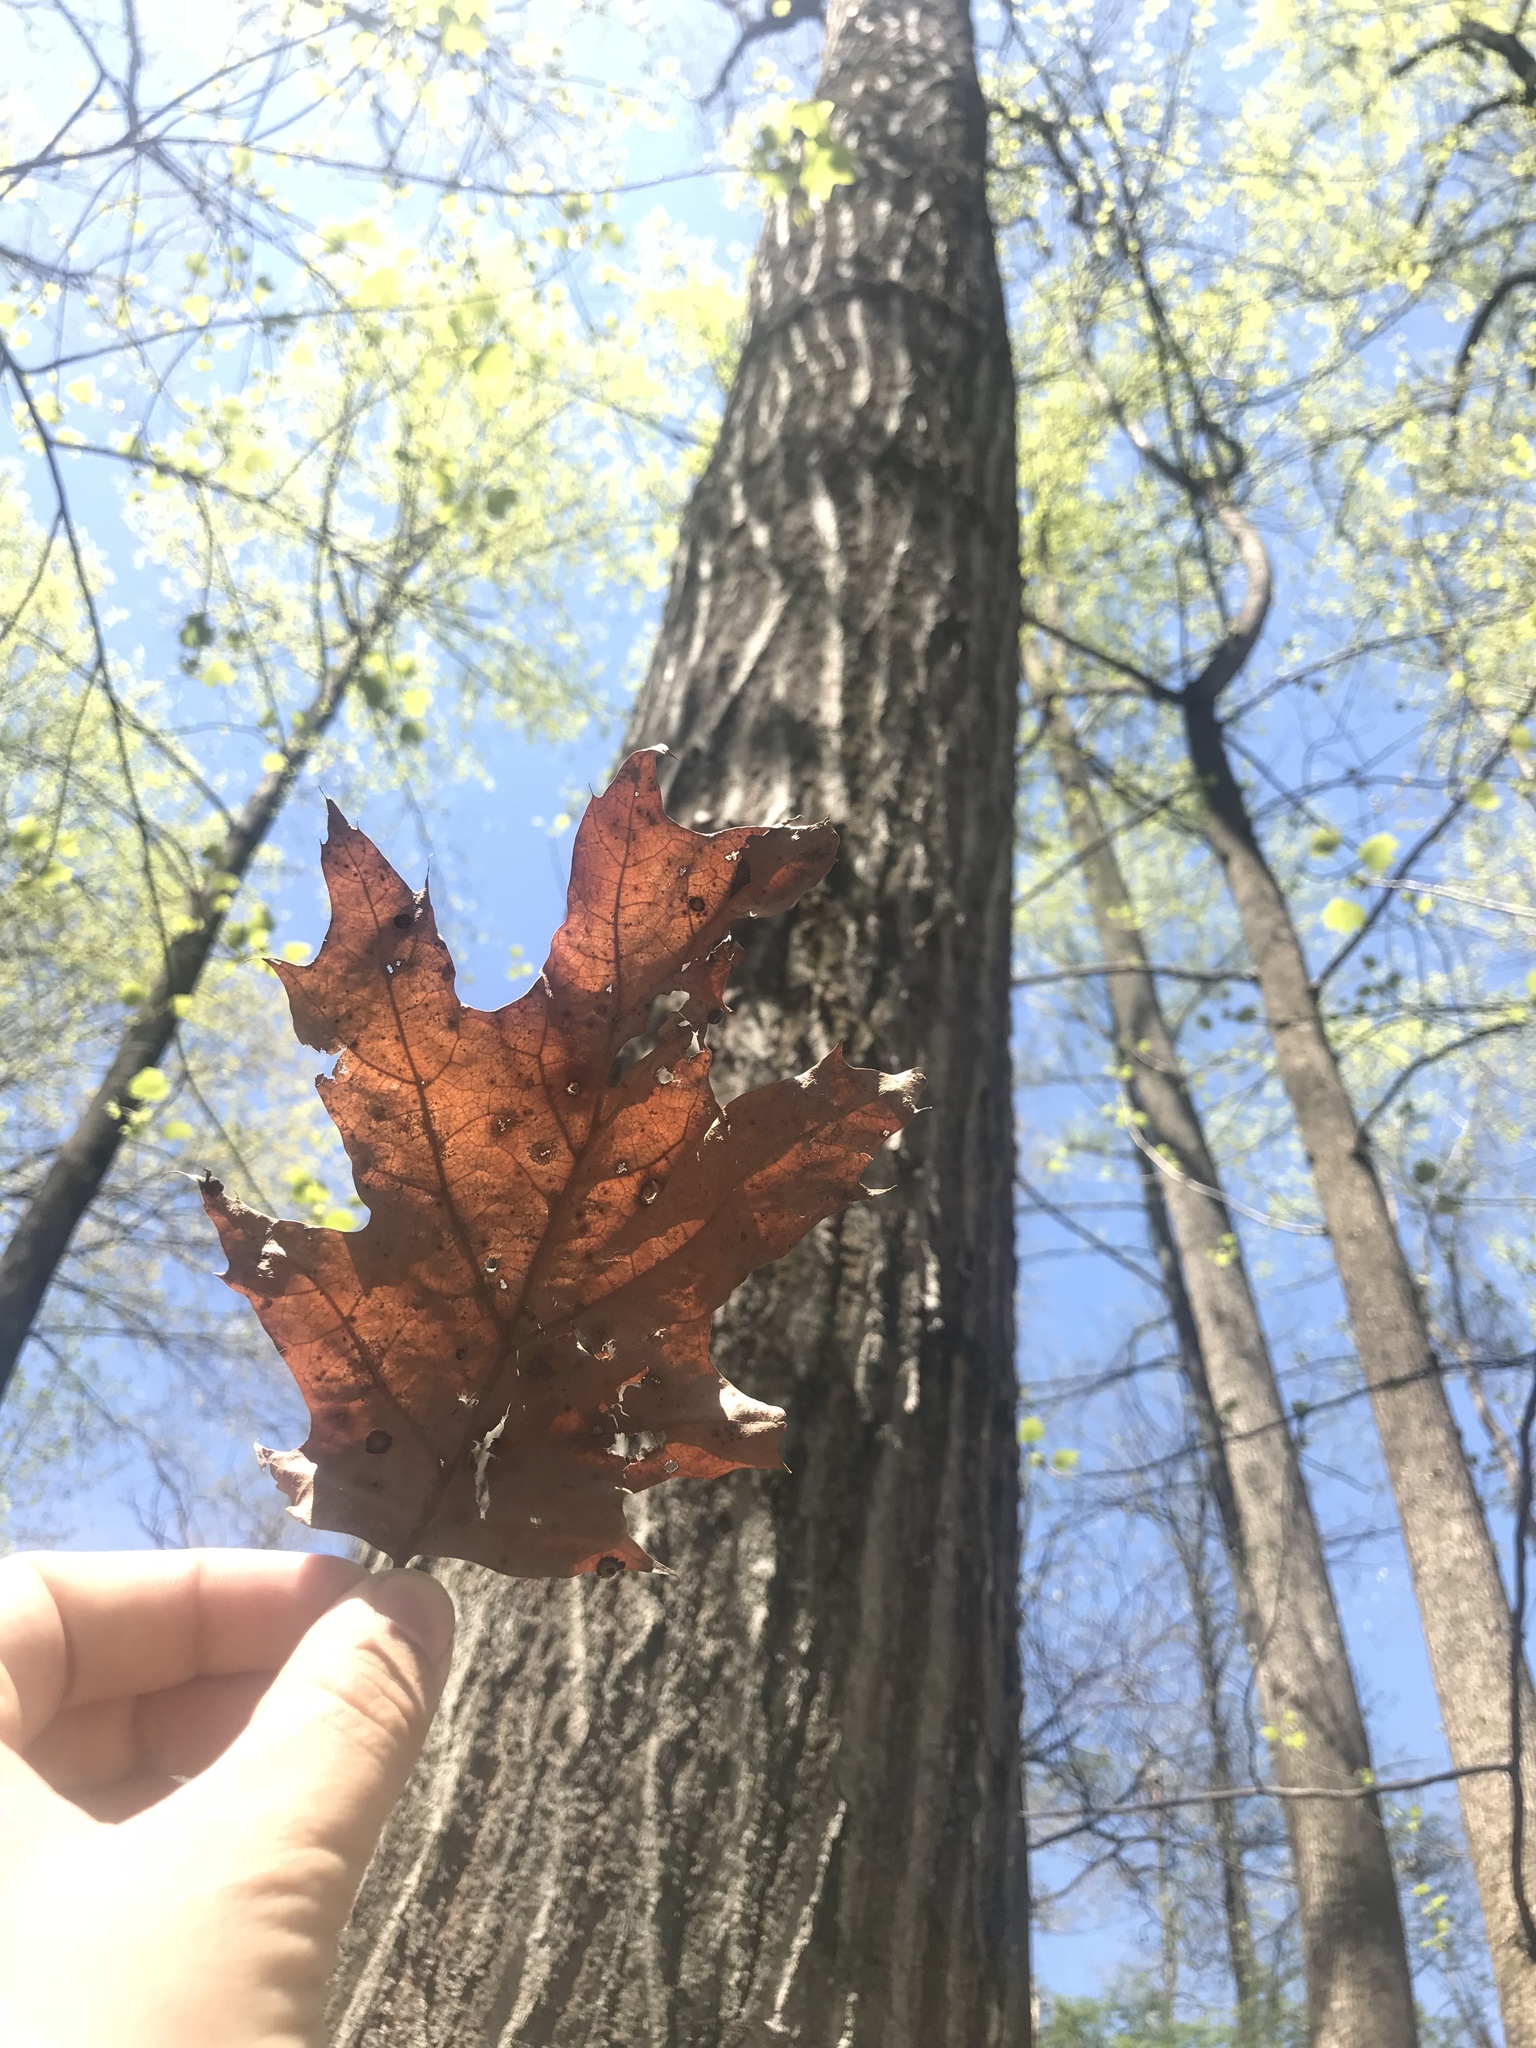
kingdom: Plantae
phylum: Tracheophyta
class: Magnoliopsida
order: Fagales
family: Fagaceae
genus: Quercus
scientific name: Quercus rubra
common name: Red oak
